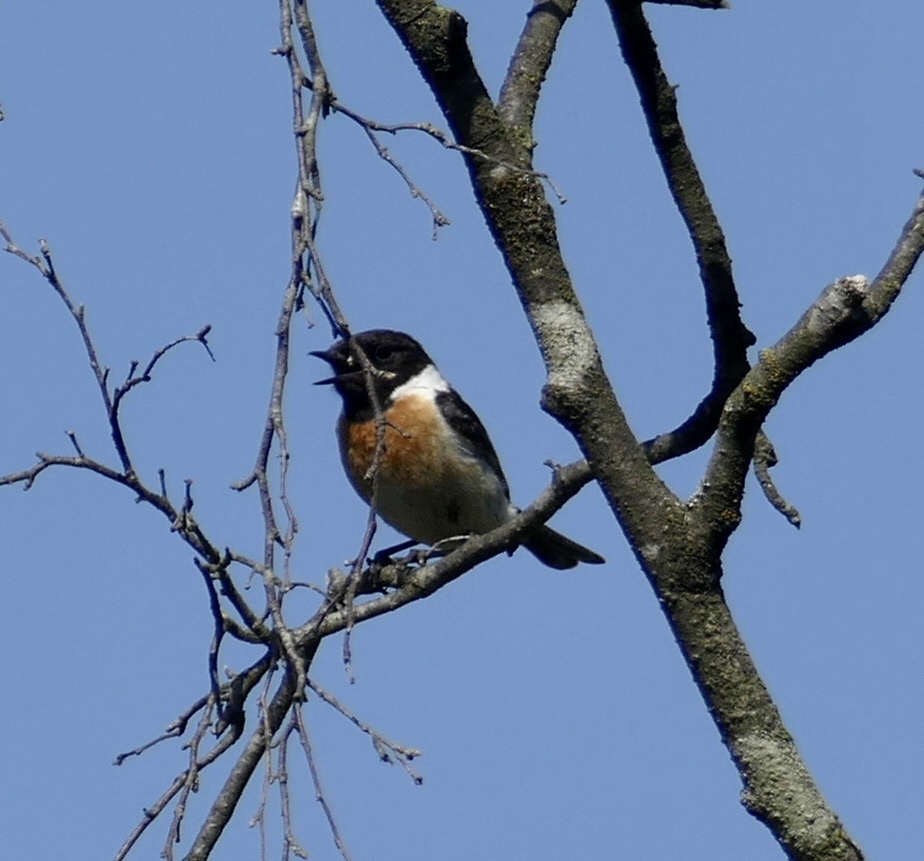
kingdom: Animalia
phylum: Chordata
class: Aves
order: Passeriformes
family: Muscicapidae
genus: Saxicola
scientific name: Saxicola rubicola
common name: European stonechat
